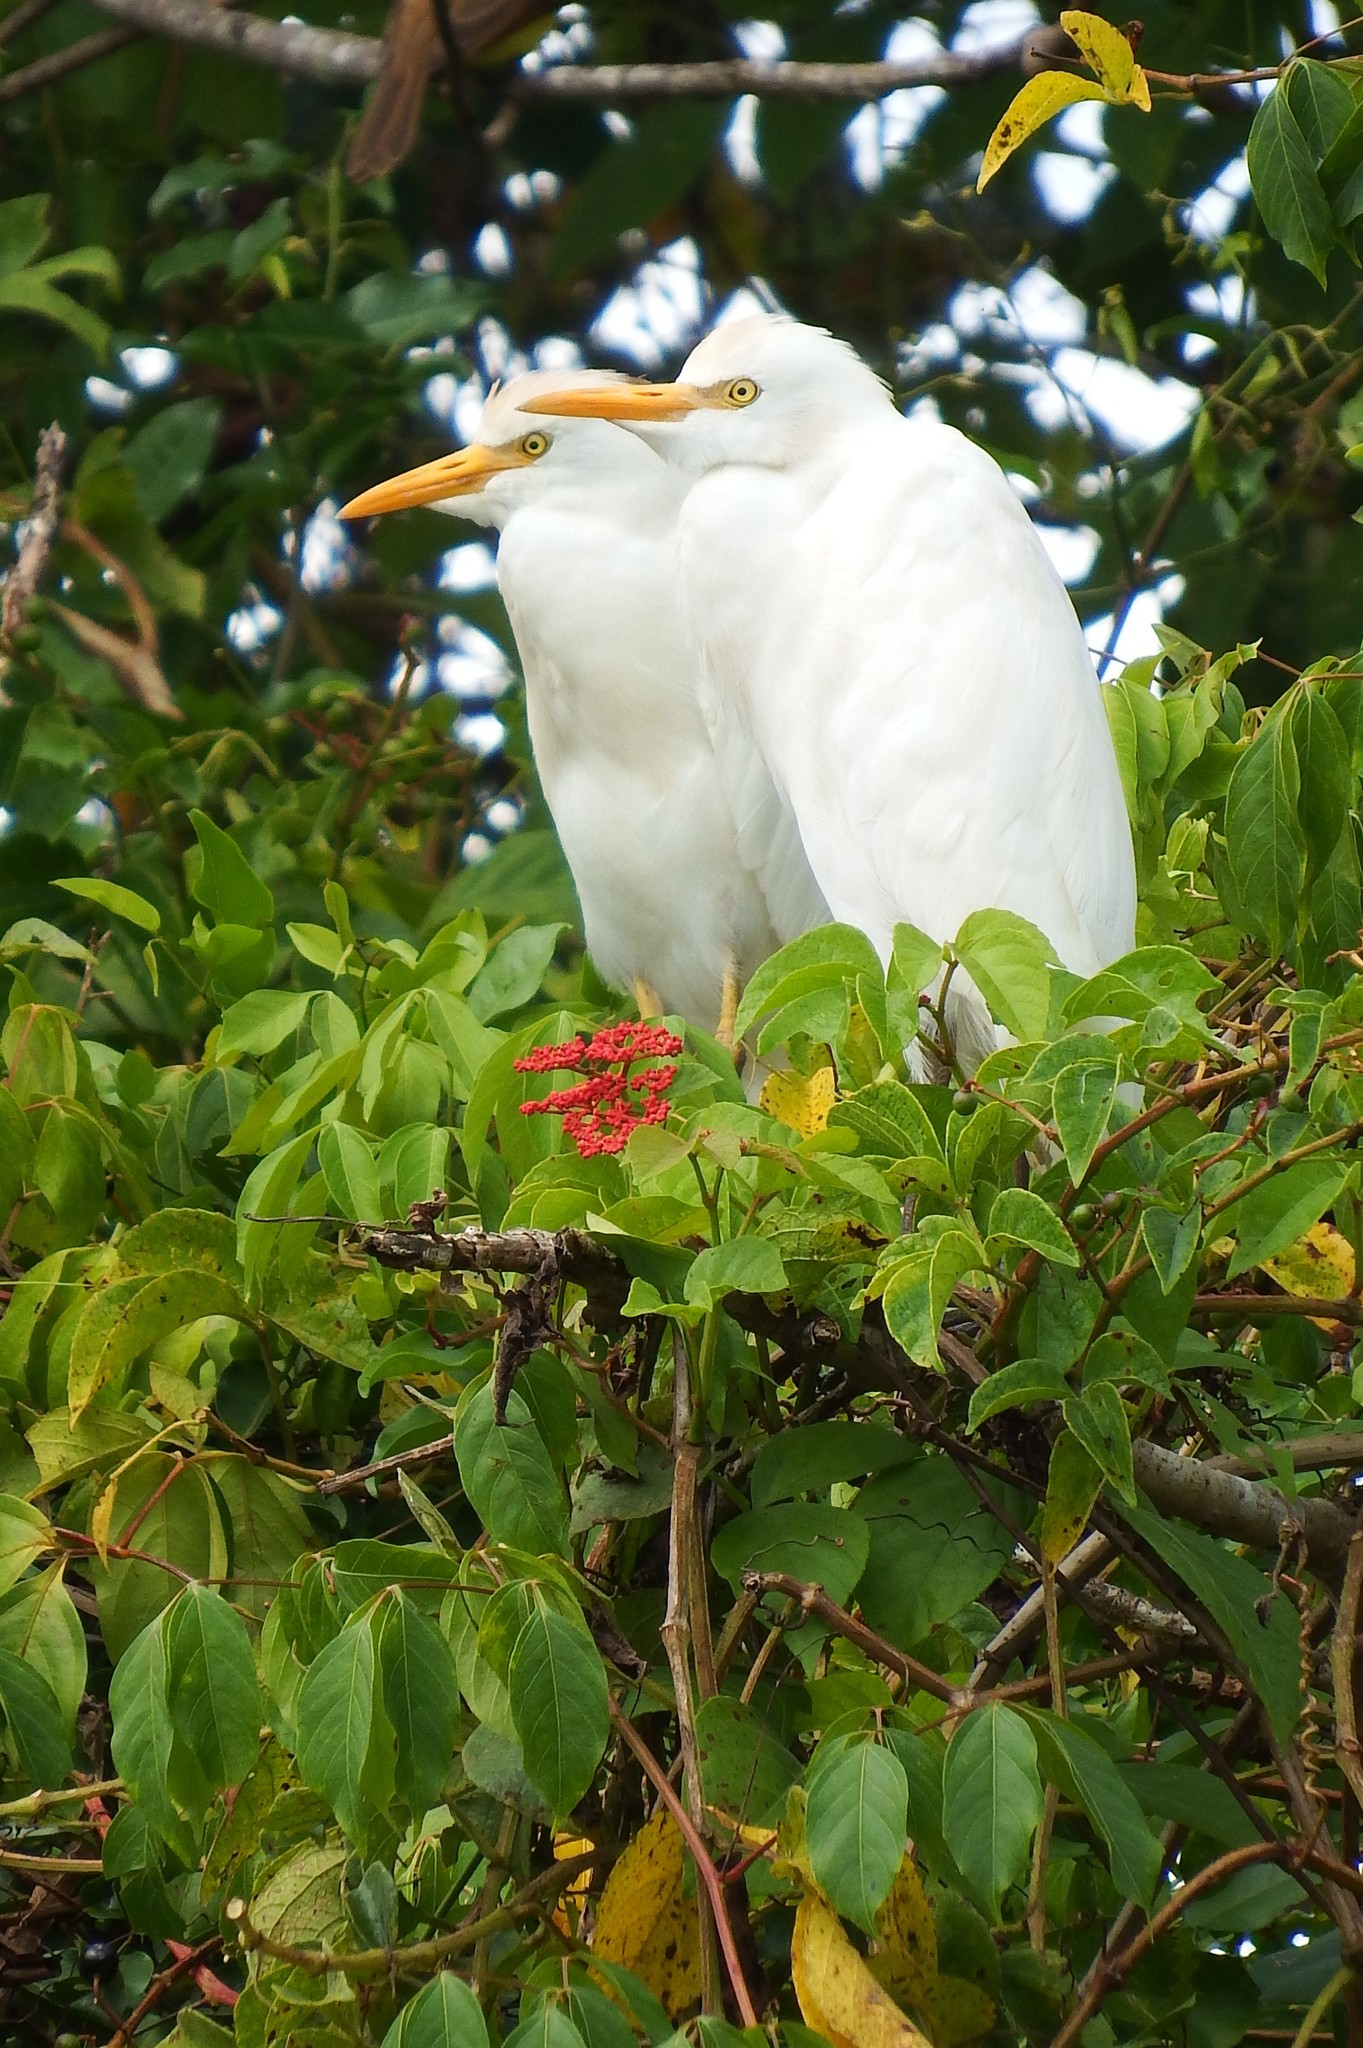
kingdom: Animalia
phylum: Chordata
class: Aves
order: Pelecaniformes
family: Ardeidae
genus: Bubulcus
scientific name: Bubulcus ibis
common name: Cattle egret
